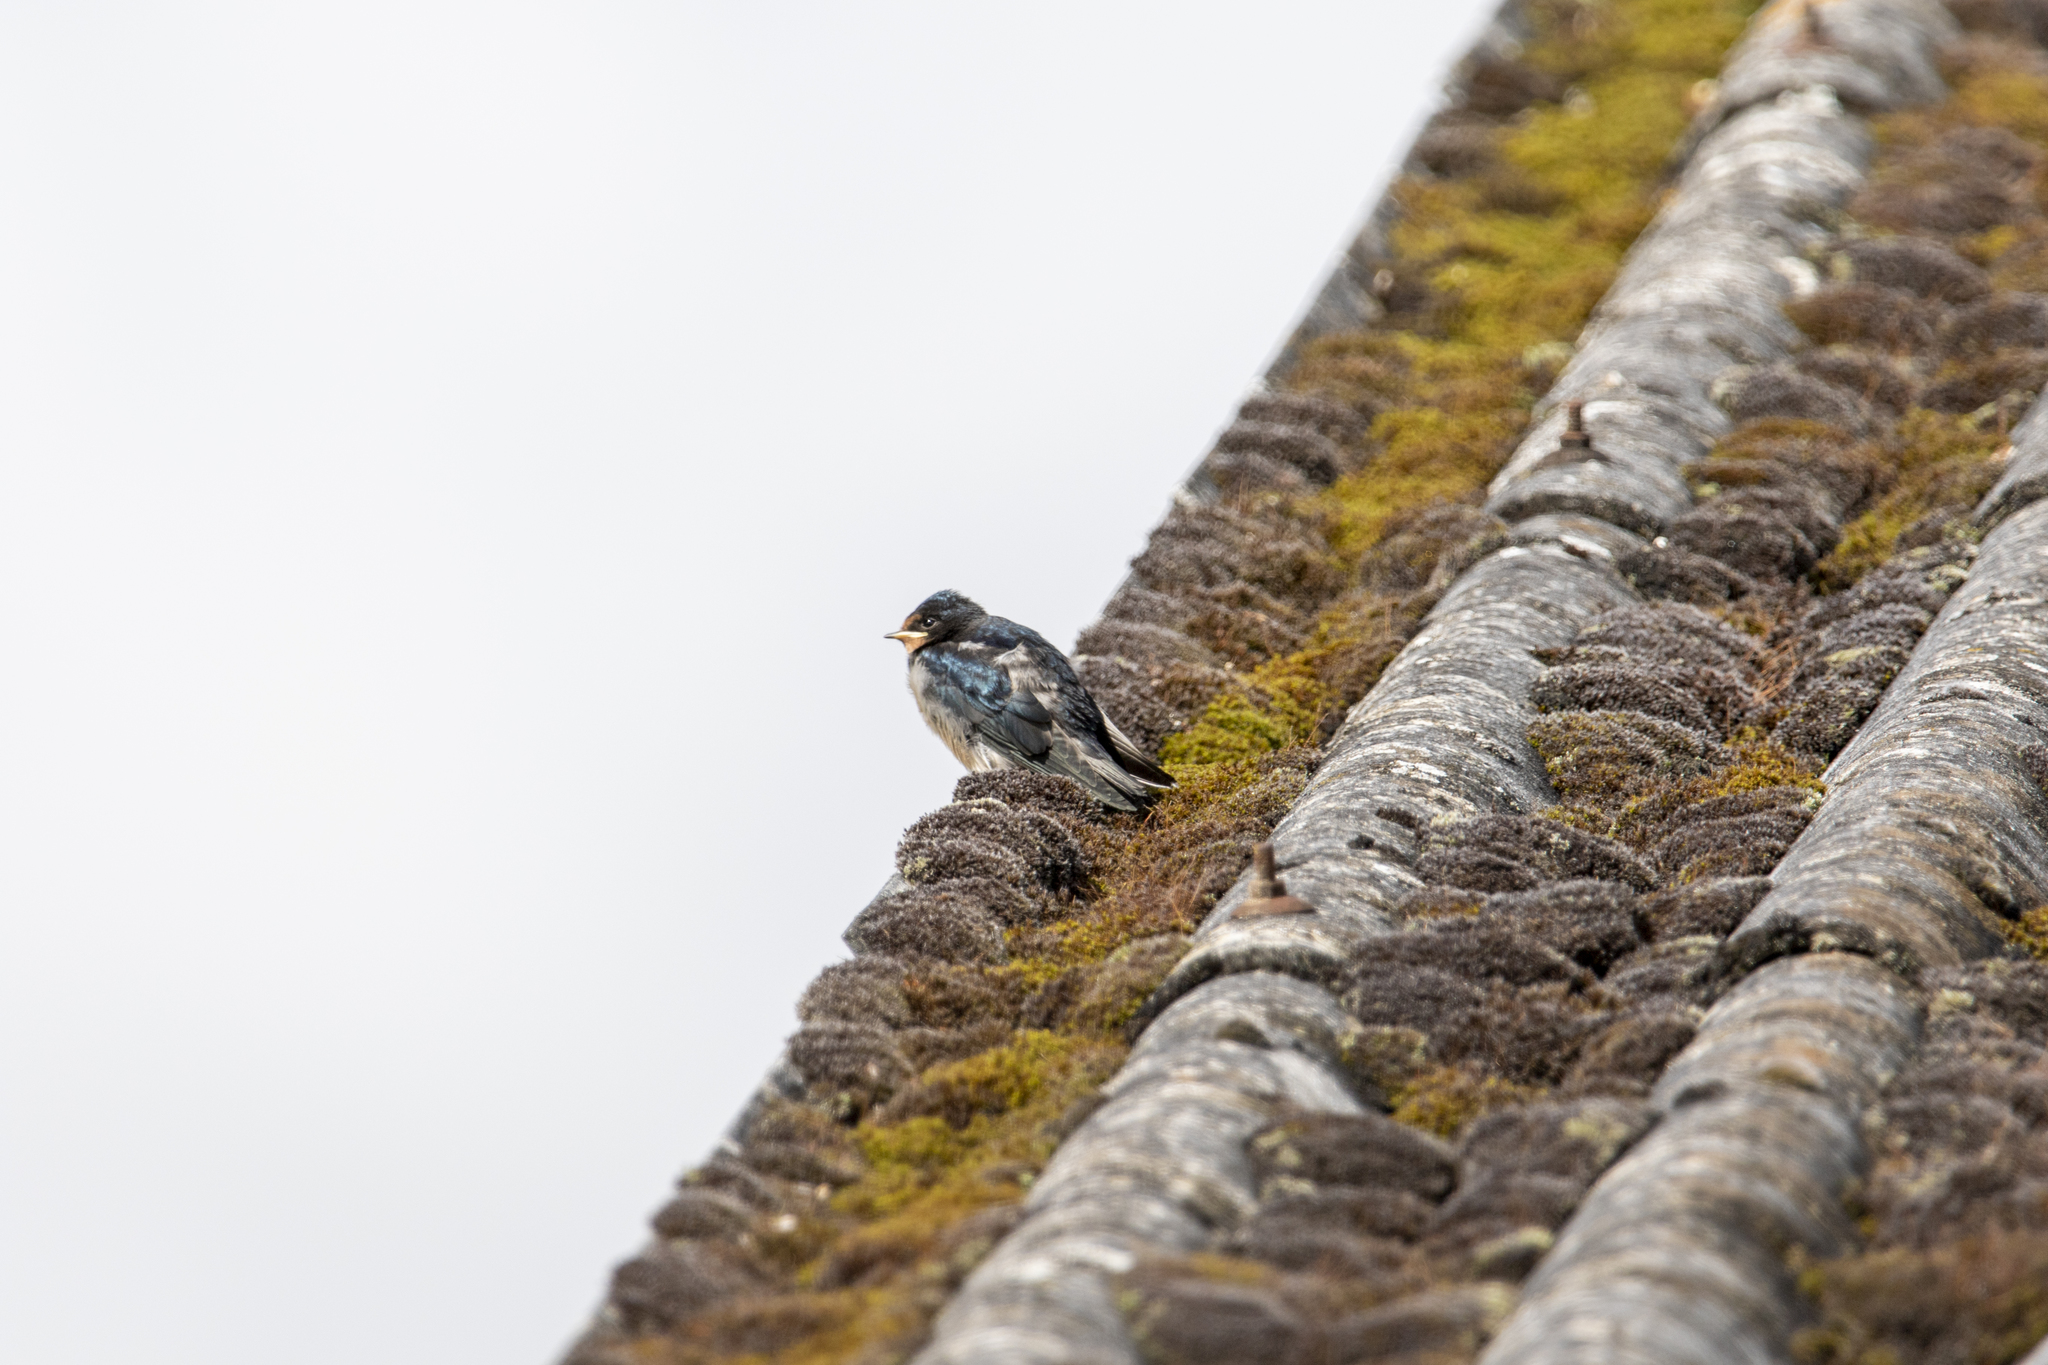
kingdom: Animalia
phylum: Chordata
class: Aves
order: Passeriformes
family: Hirundinidae
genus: Hirundo
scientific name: Hirundo rustica
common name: Barn swallow
